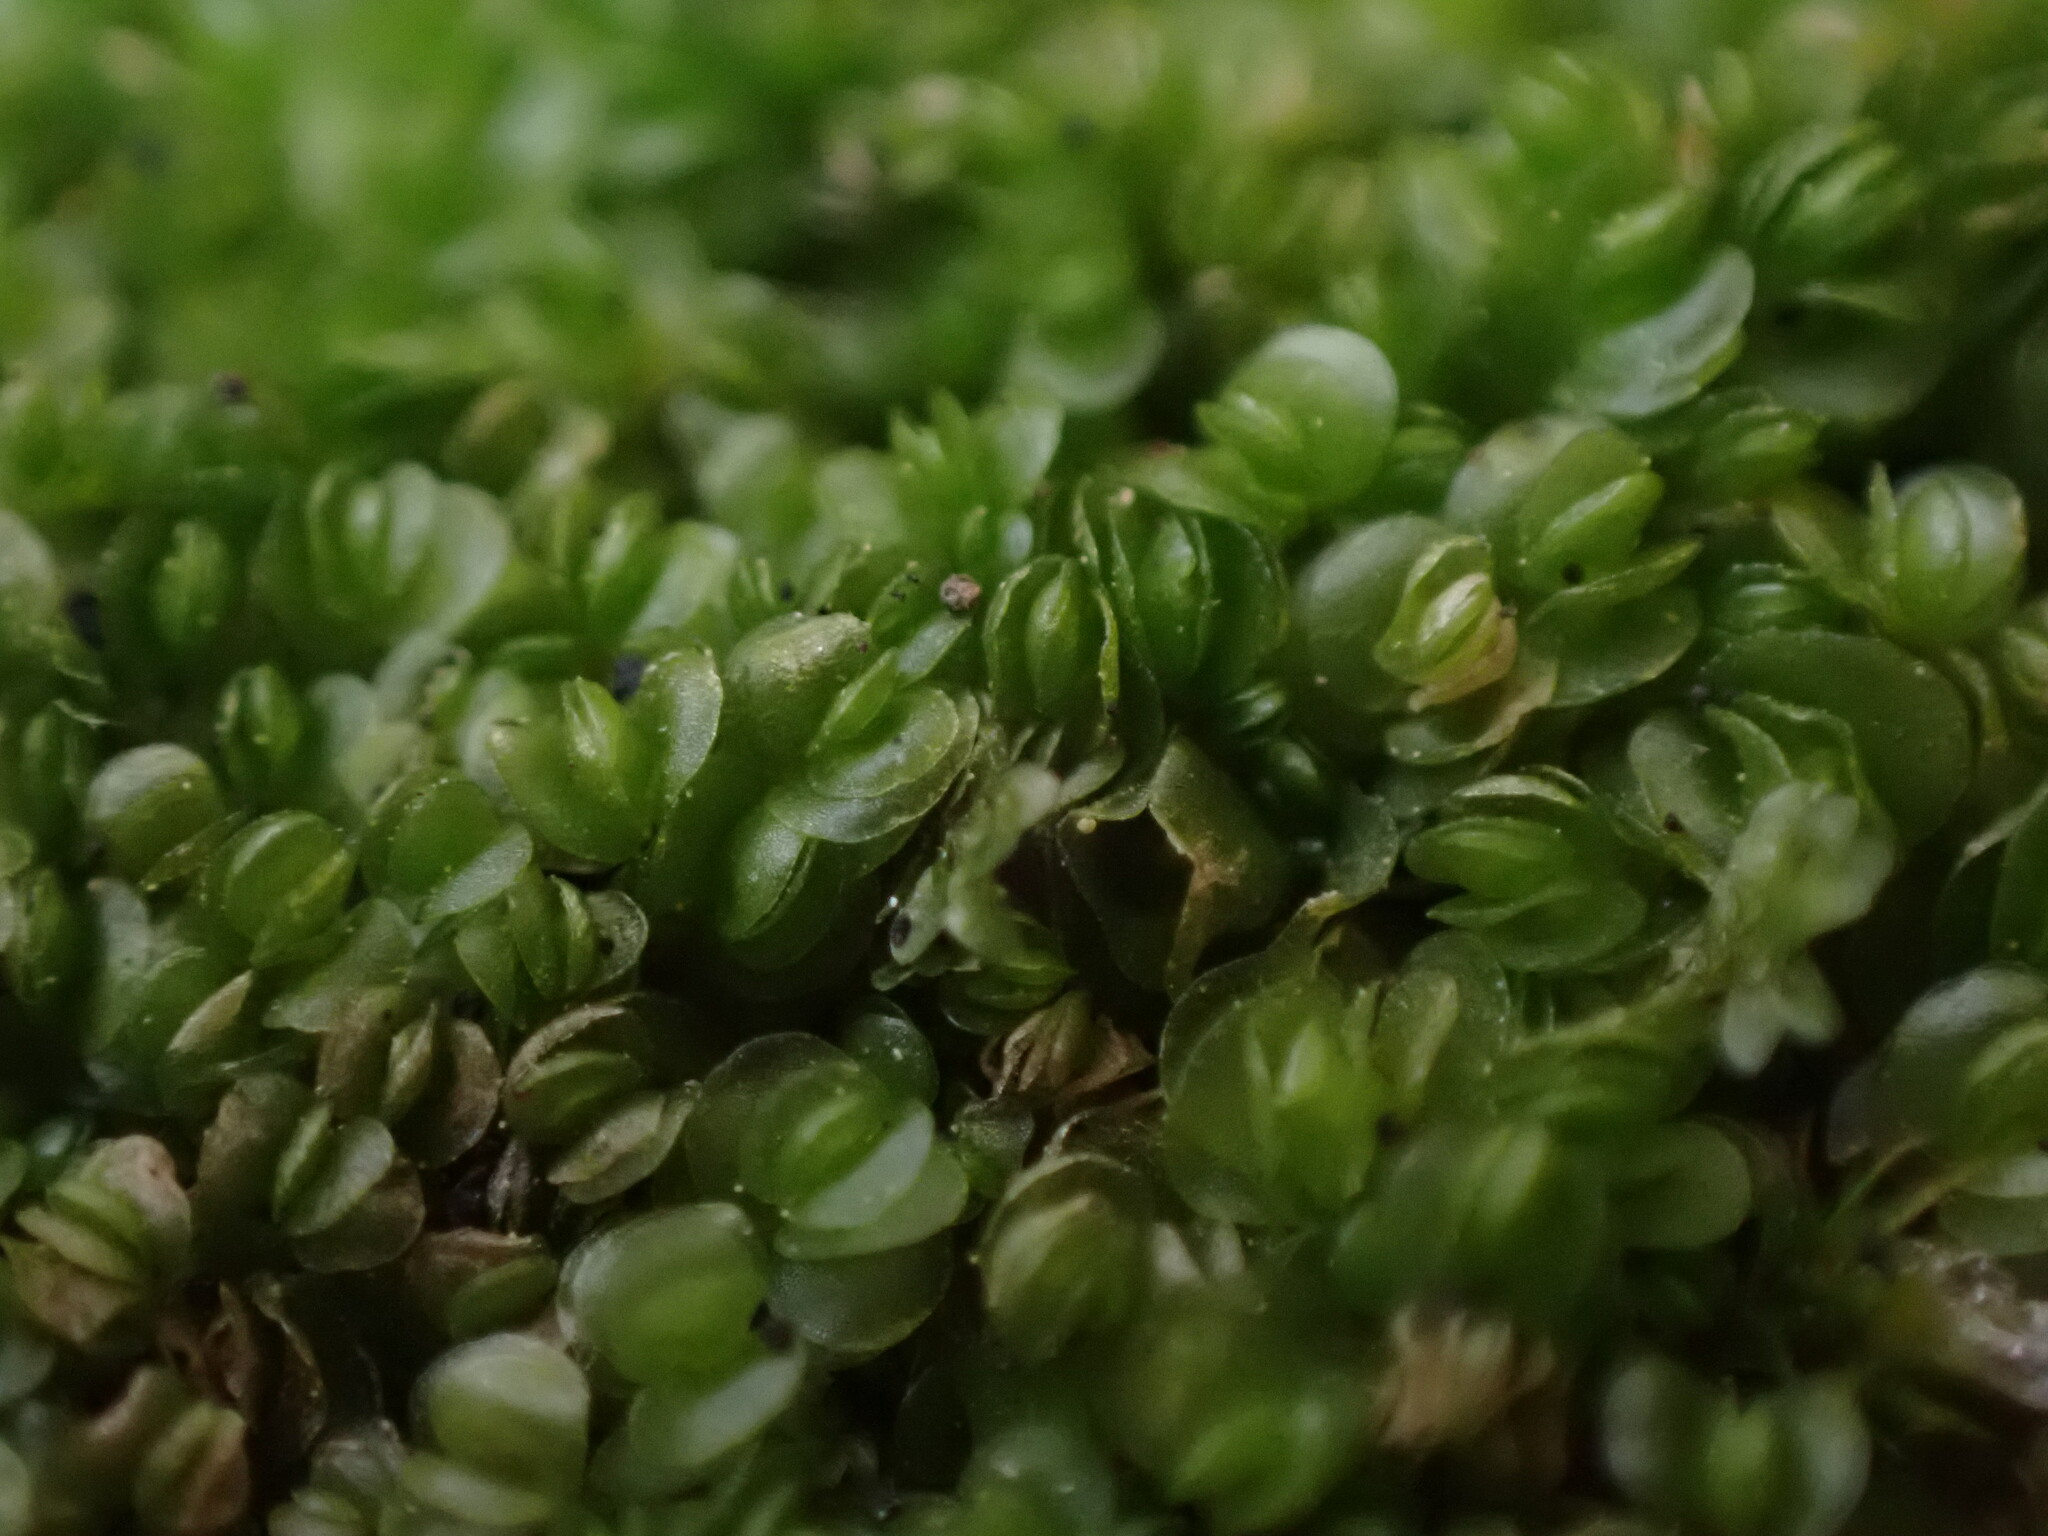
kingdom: Plantae
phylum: Marchantiophyta
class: Jungermanniopsida
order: Jungermanniales
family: Gymnomitriaceae
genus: Nardia
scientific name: Nardia scalaris
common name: Ladder flapwort
